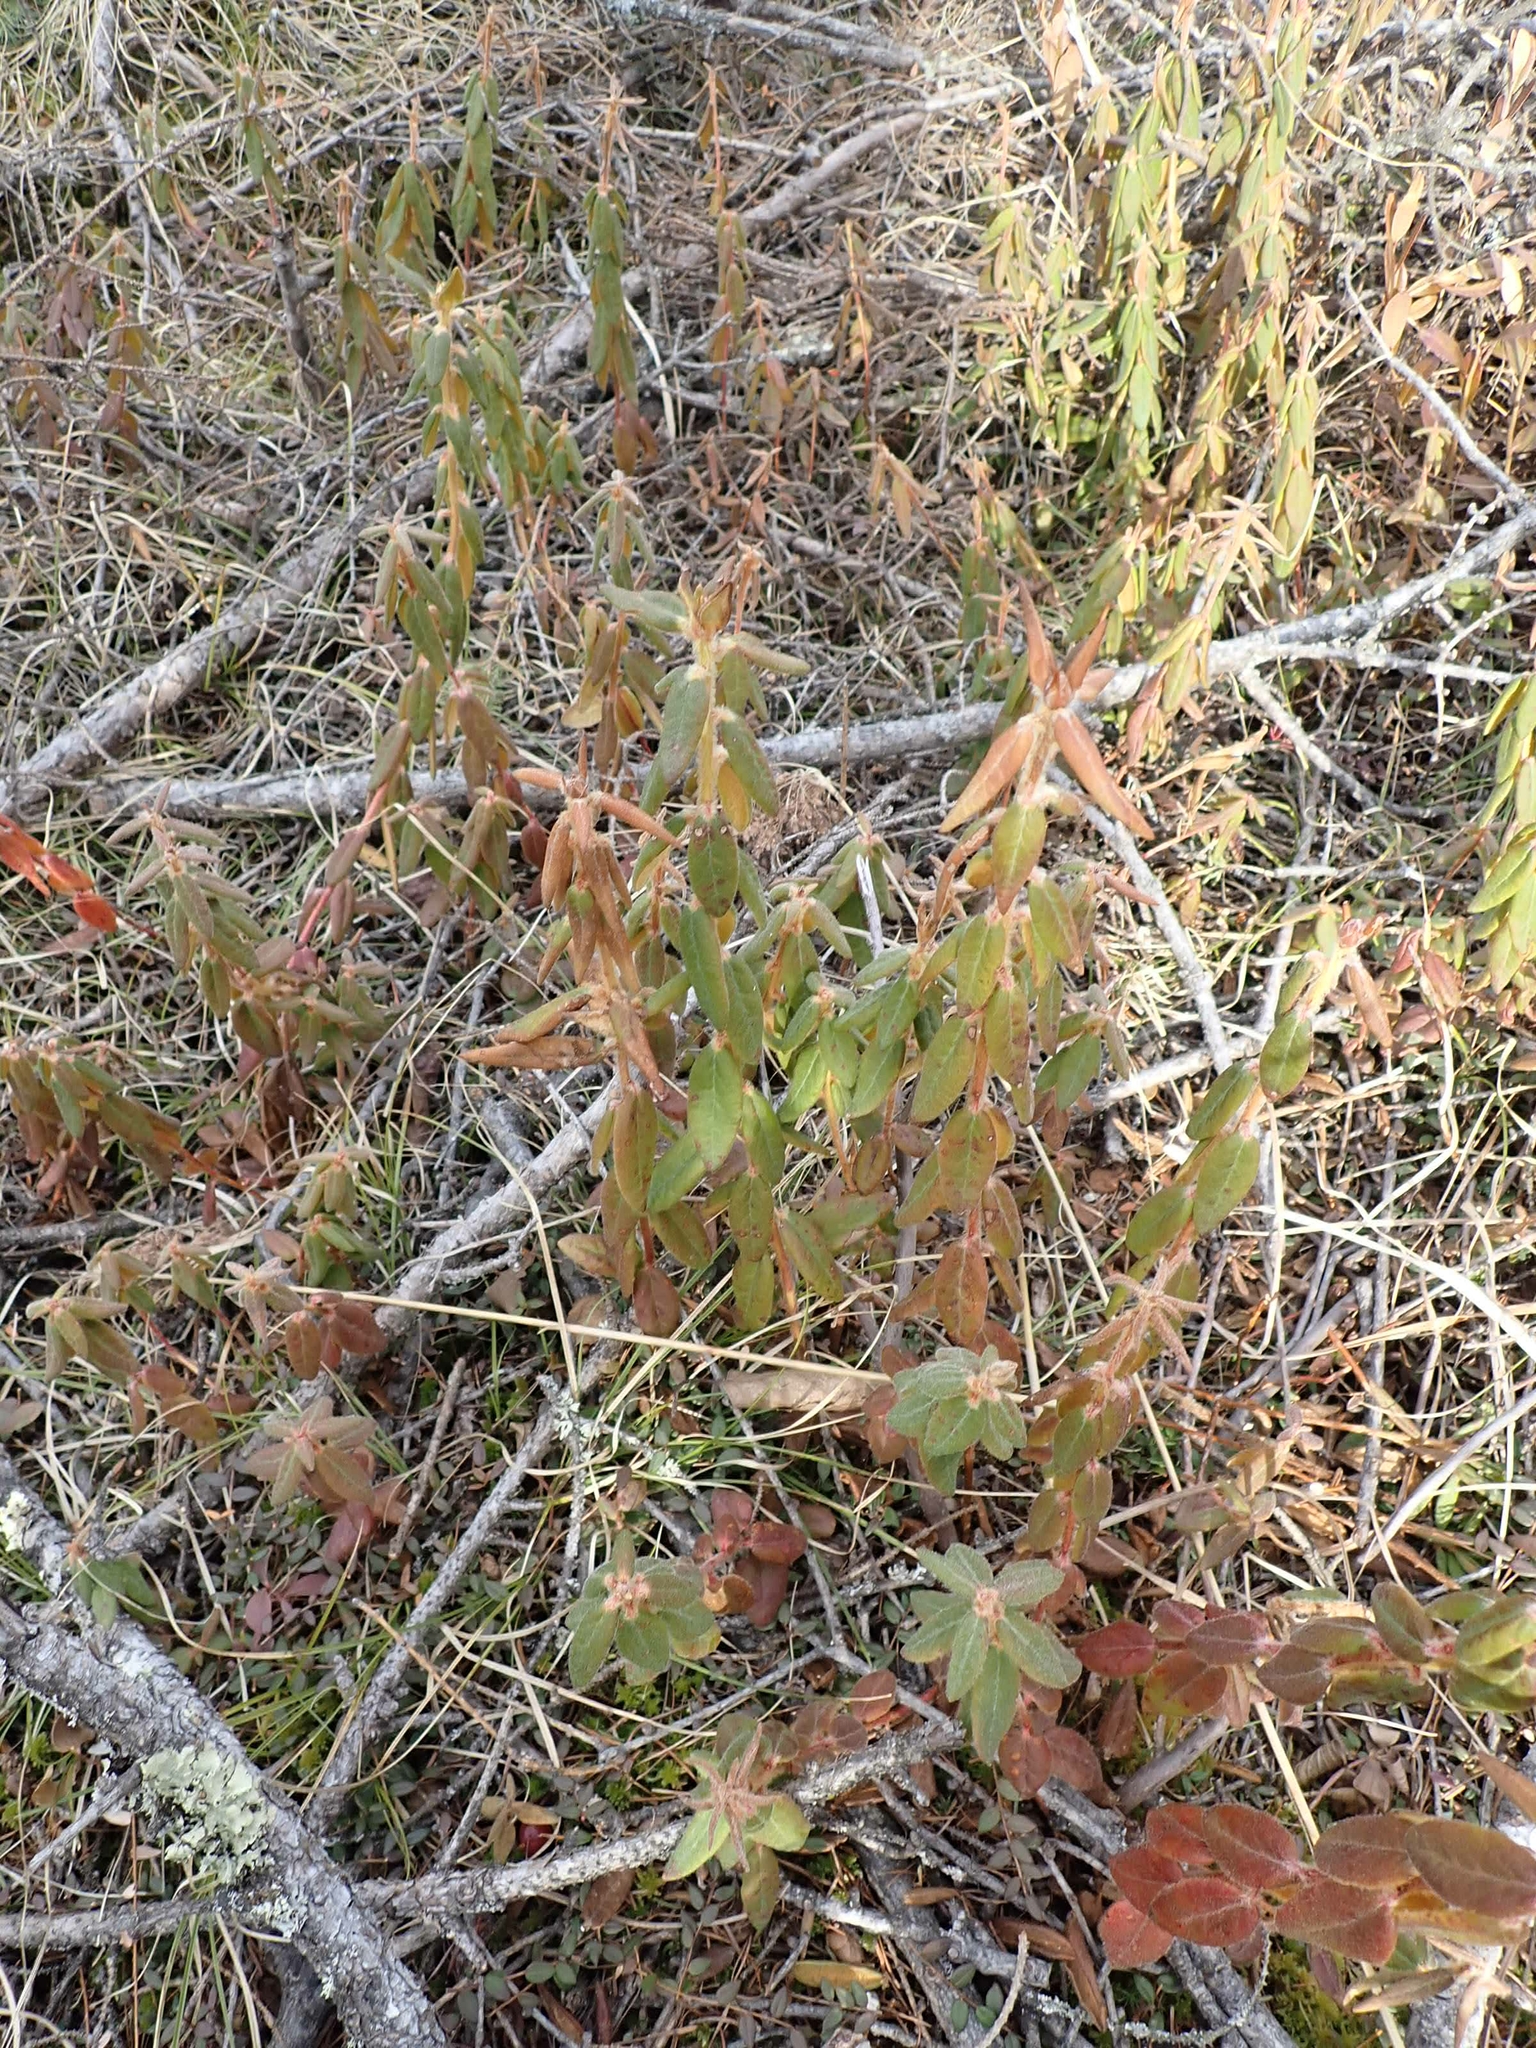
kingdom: Plantae
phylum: Tracheophyta
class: Magnoliopsida
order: Ericales
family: Ericaceae
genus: Rhododendron
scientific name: Rhododendron groenlandicum
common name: Bog labrador tea
